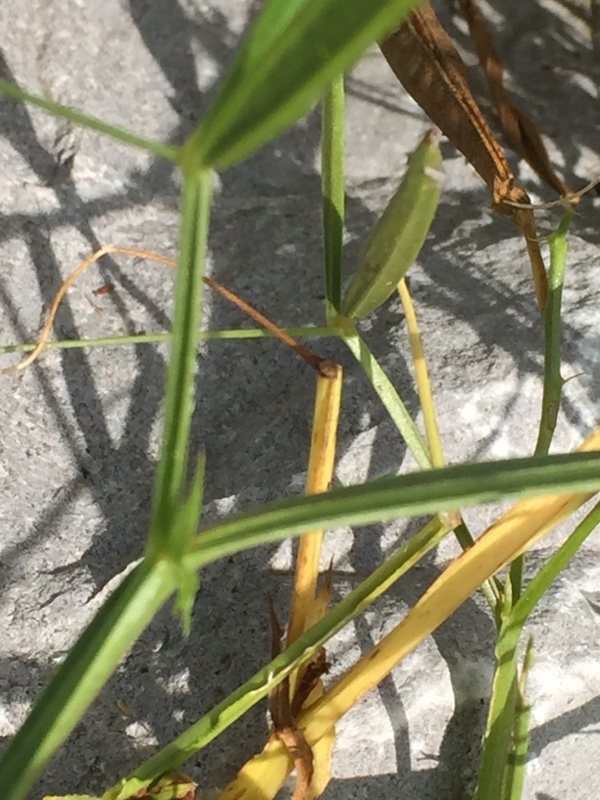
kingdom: Plantae
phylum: Tracheophyta
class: Magnoliopsida
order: Fabales
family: Fabaceae
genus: Lathyrus
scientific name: Lathyrus sylvestris
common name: Flat pea
